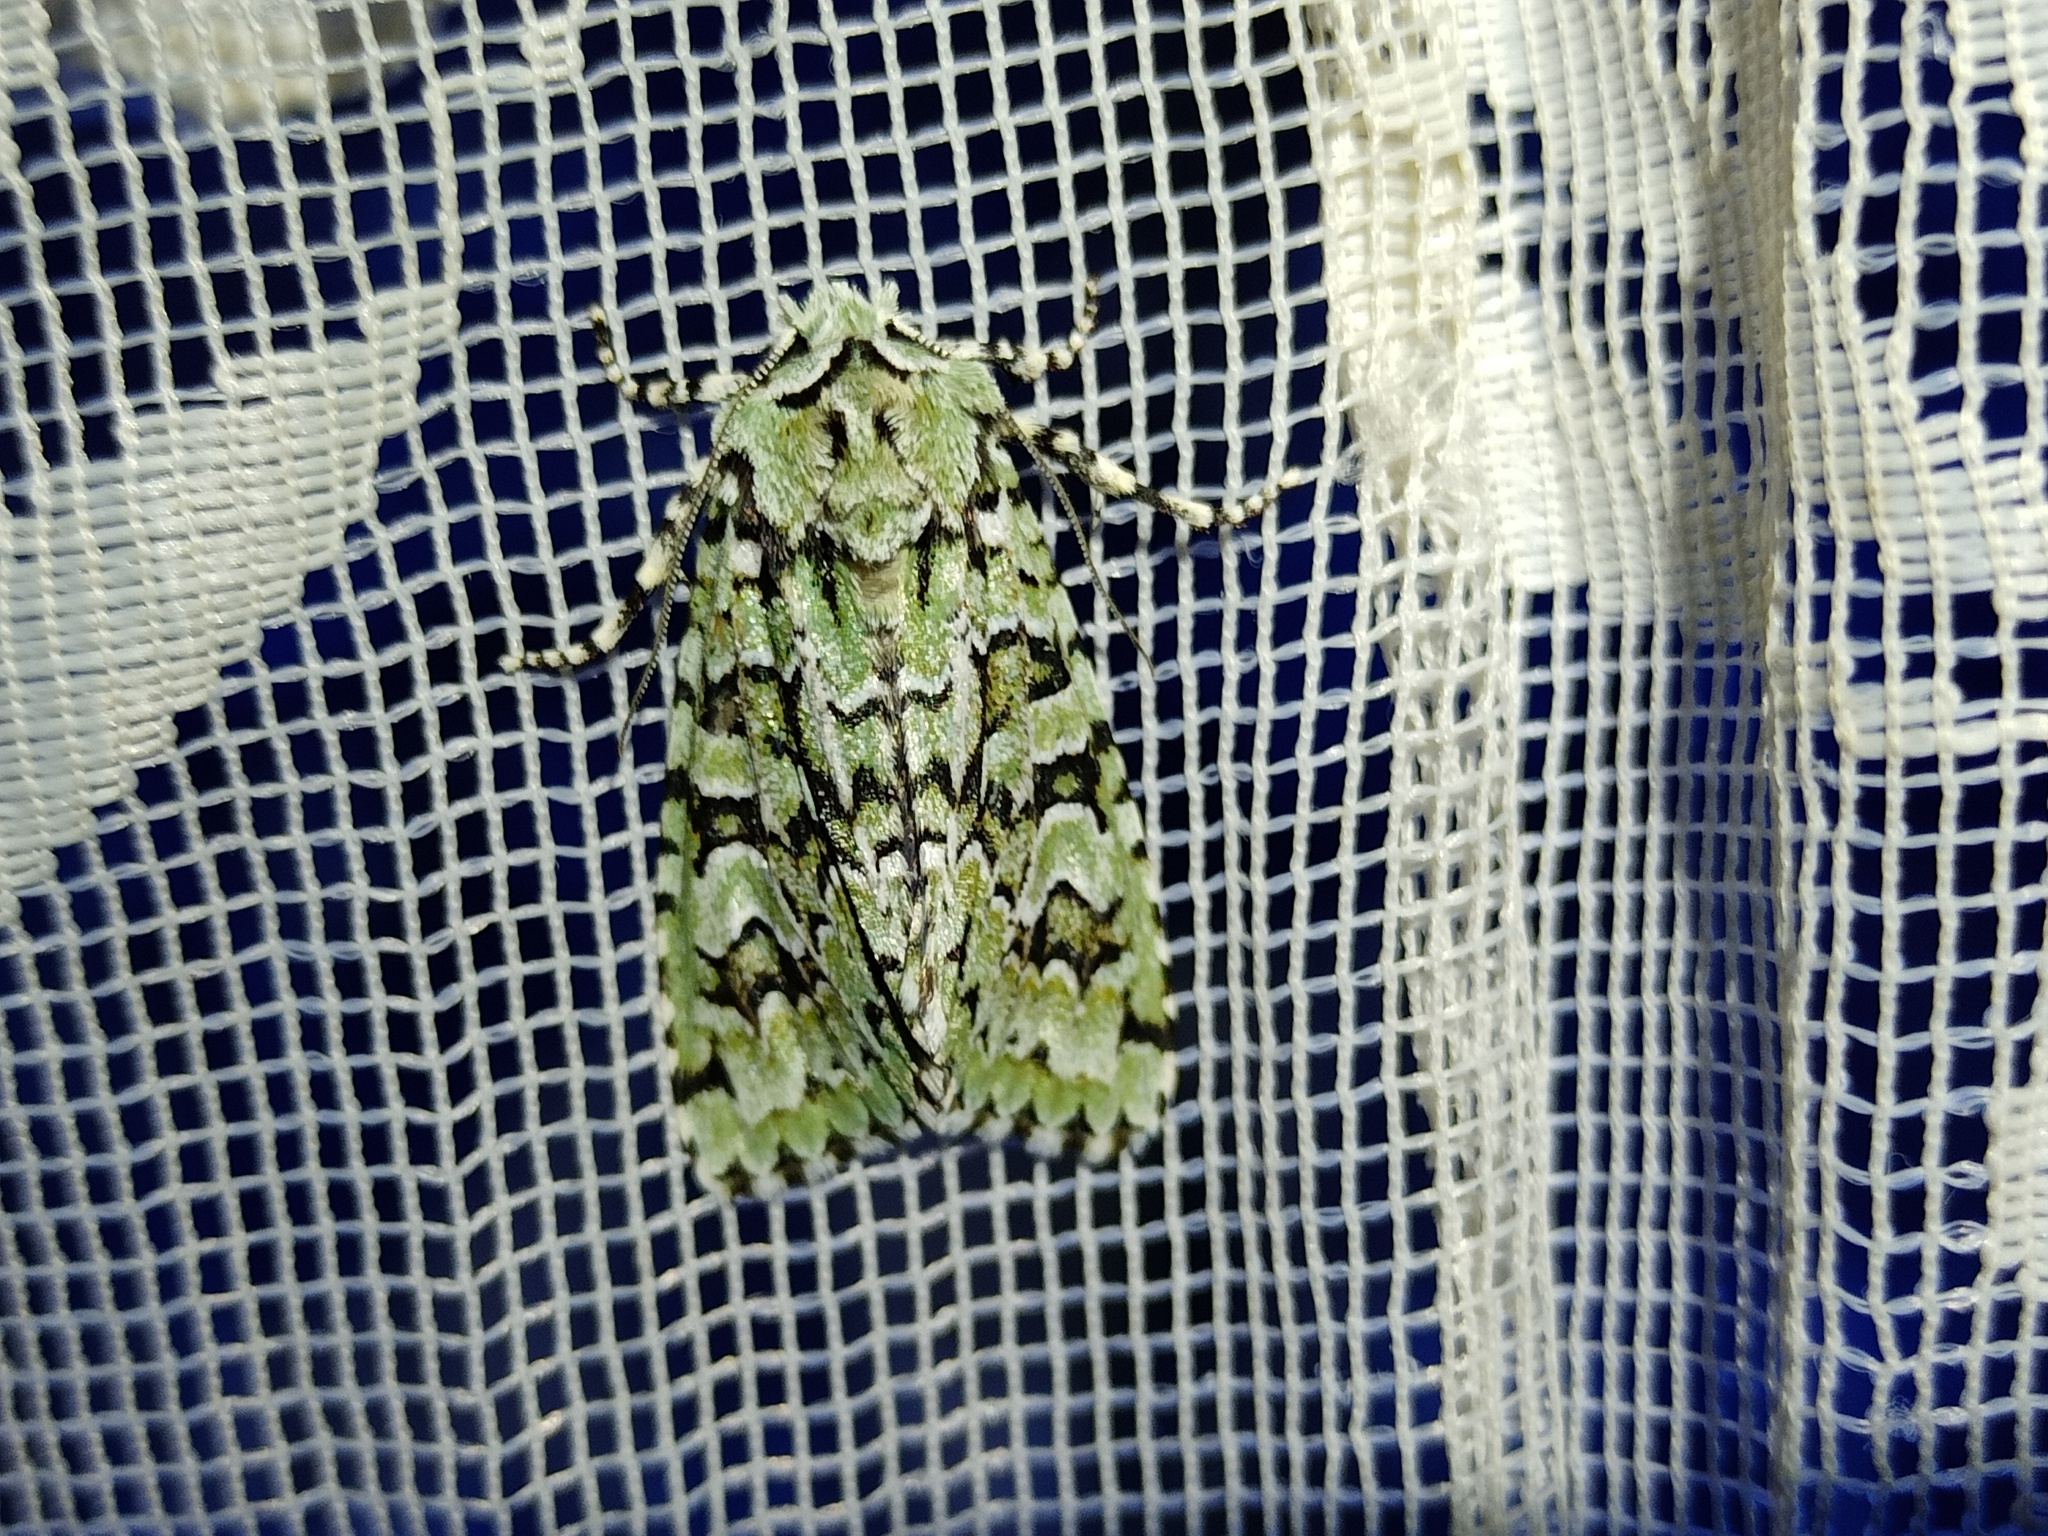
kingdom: Animalia
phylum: Arthropoda
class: Insecta
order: Lepidoptera
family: Noctuidae
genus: Griposia
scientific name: Griposia aprilina
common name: Merveille du jour
